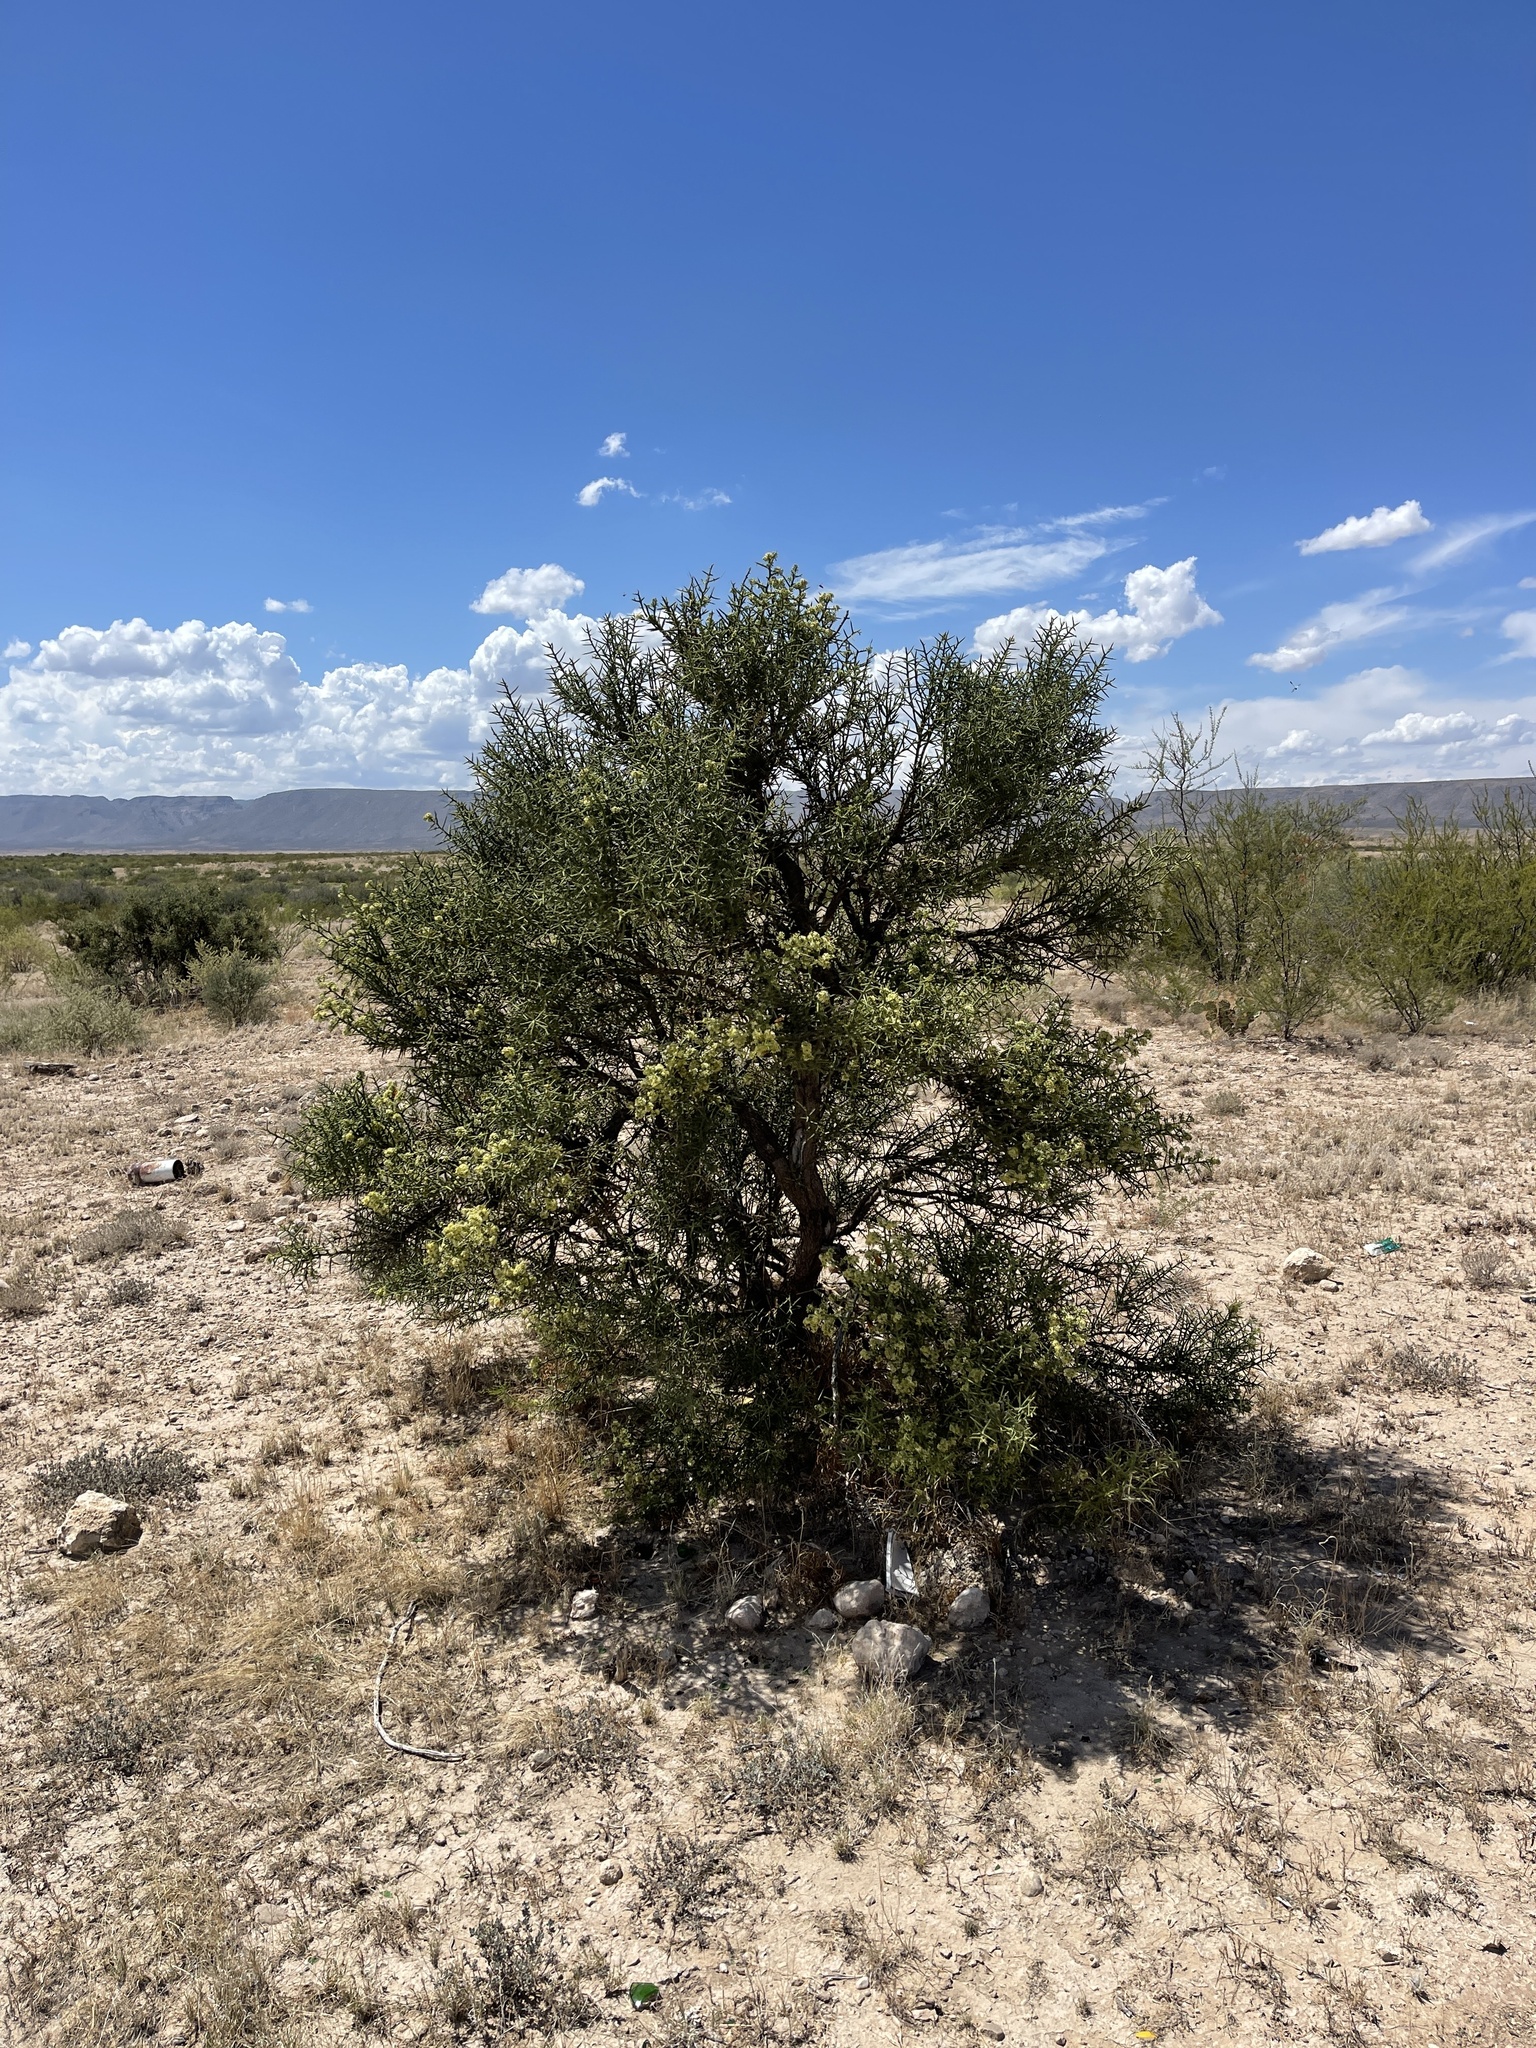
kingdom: Plantae
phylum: Tracheophyta
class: Magnoliopsida
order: Brassicales
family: Koeberliniaceae
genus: Koeberlinia
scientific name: Koeberlinia spinosa
